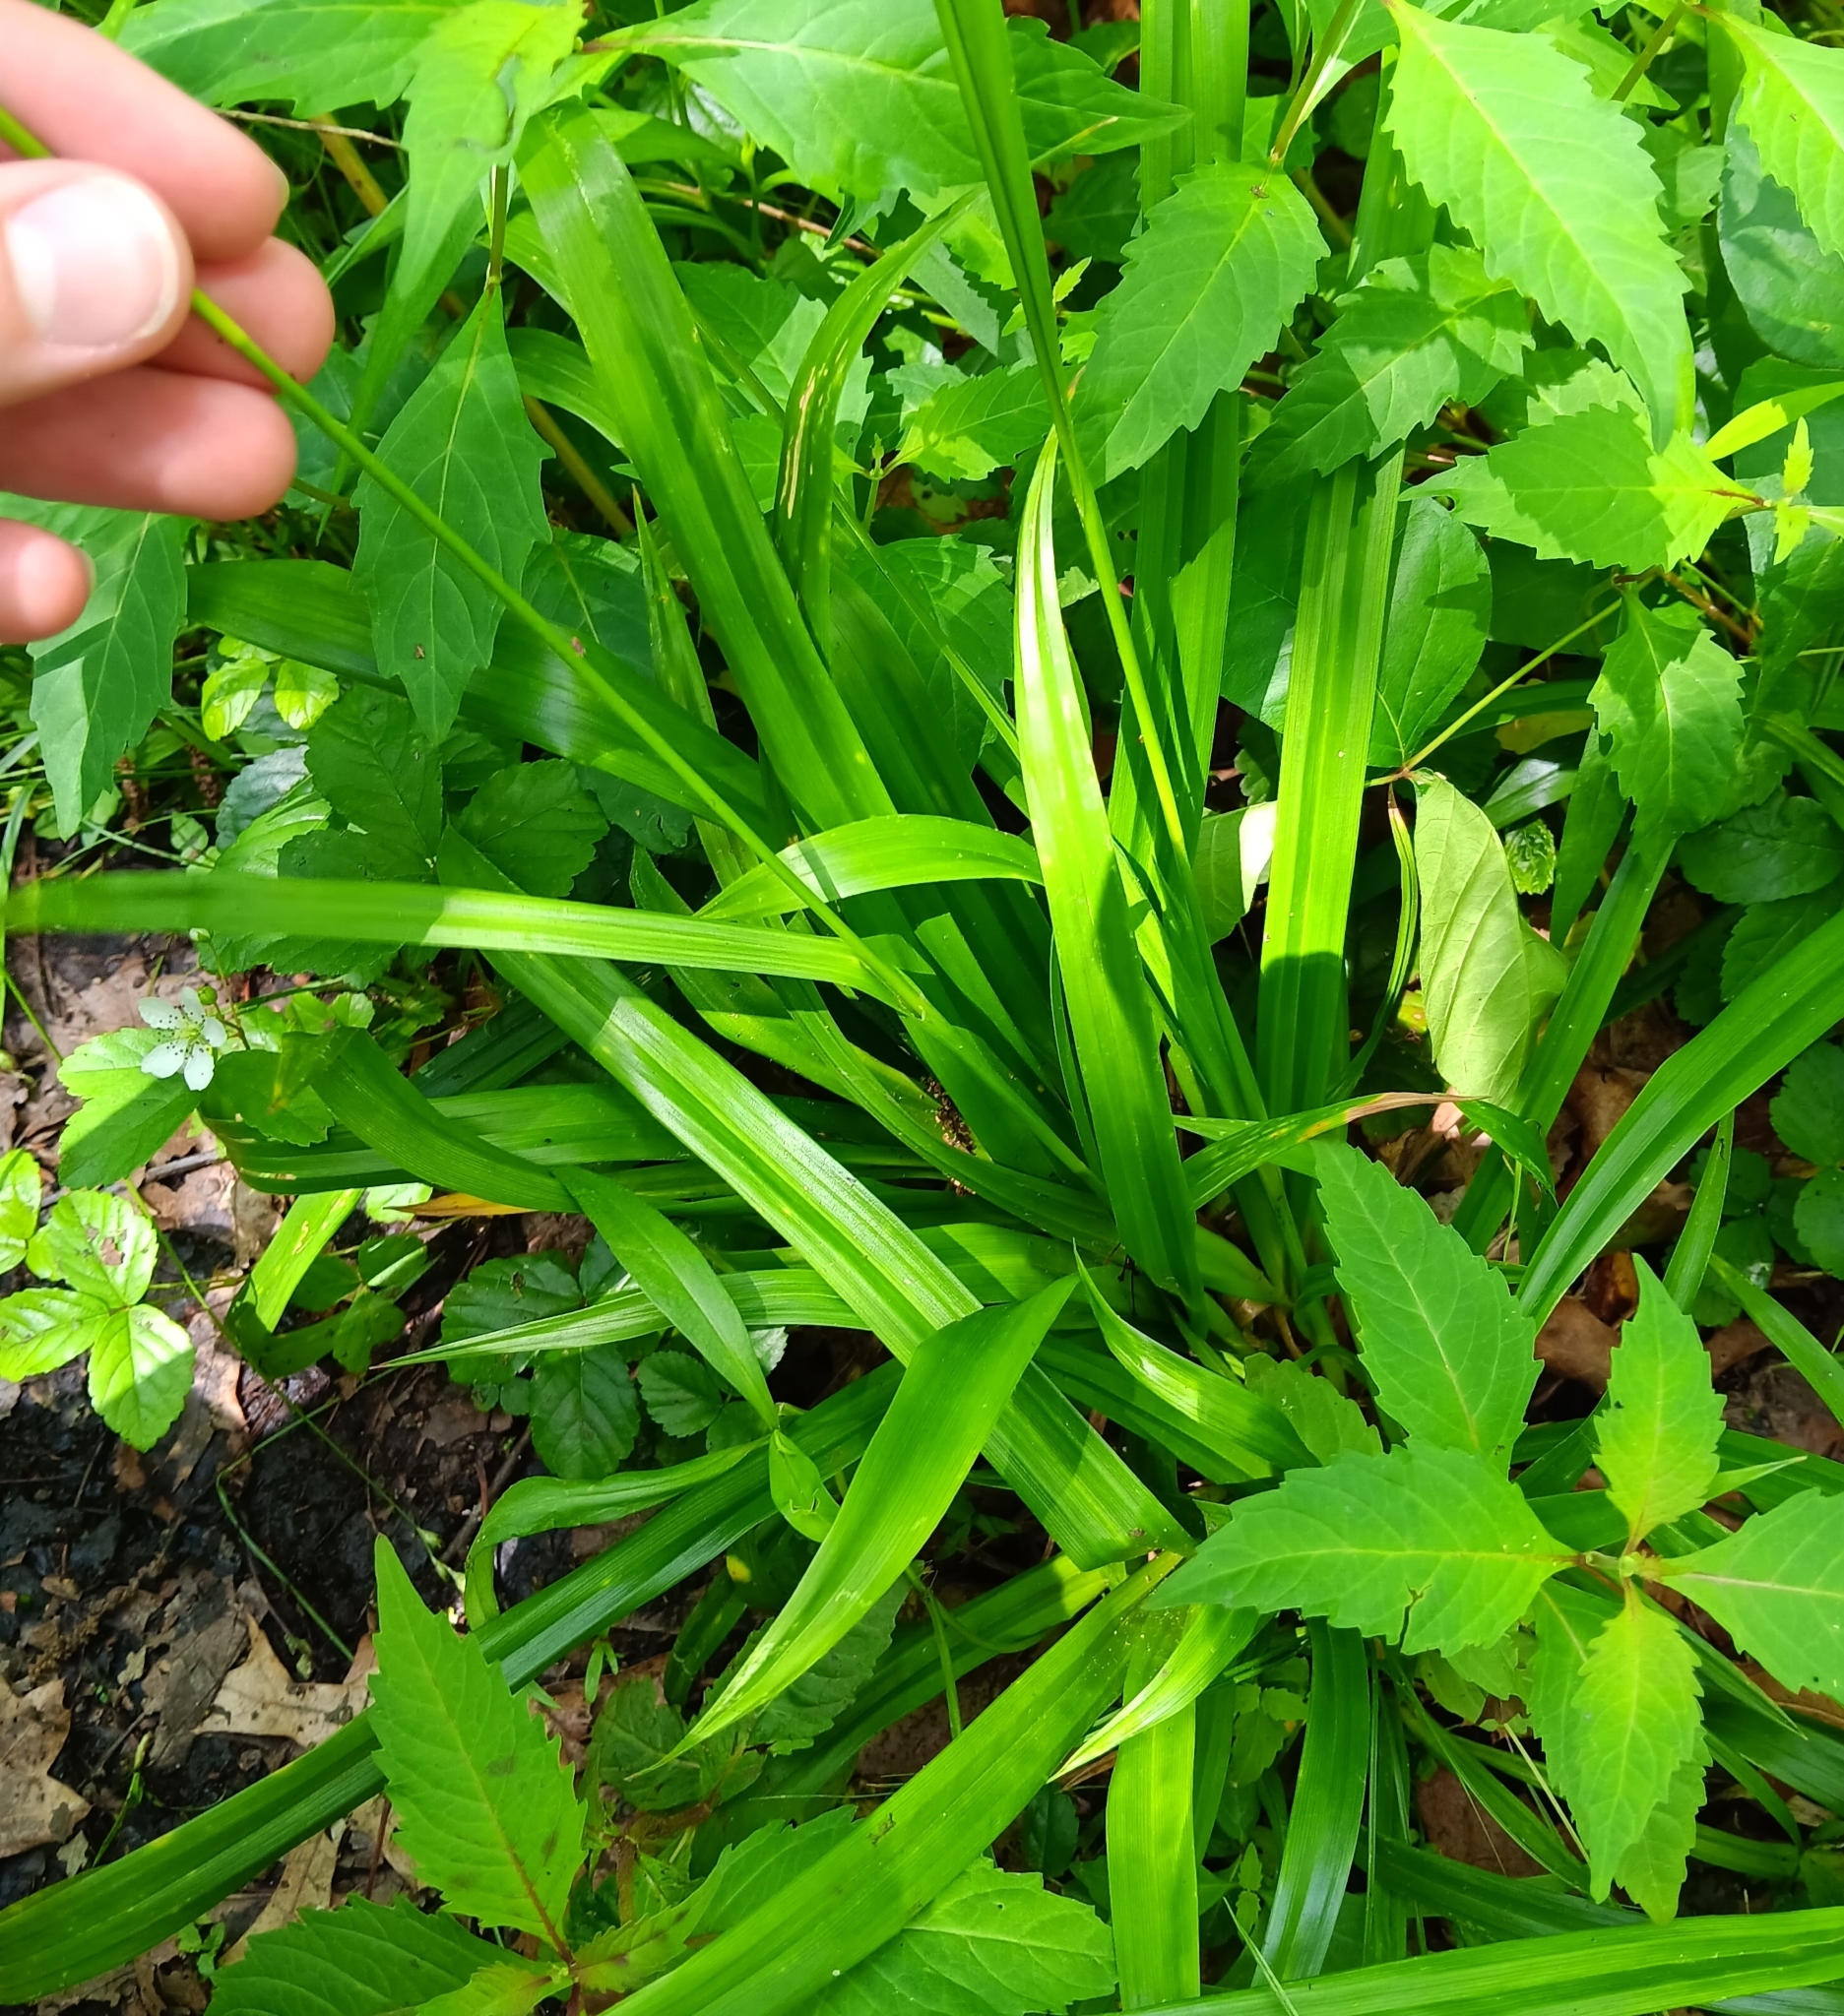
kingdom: Plantae
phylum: Tracheophyta
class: Liliopsida
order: Poales
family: Cyperaceae
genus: Carex
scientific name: Carex folliculata
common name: Northern long sedge
